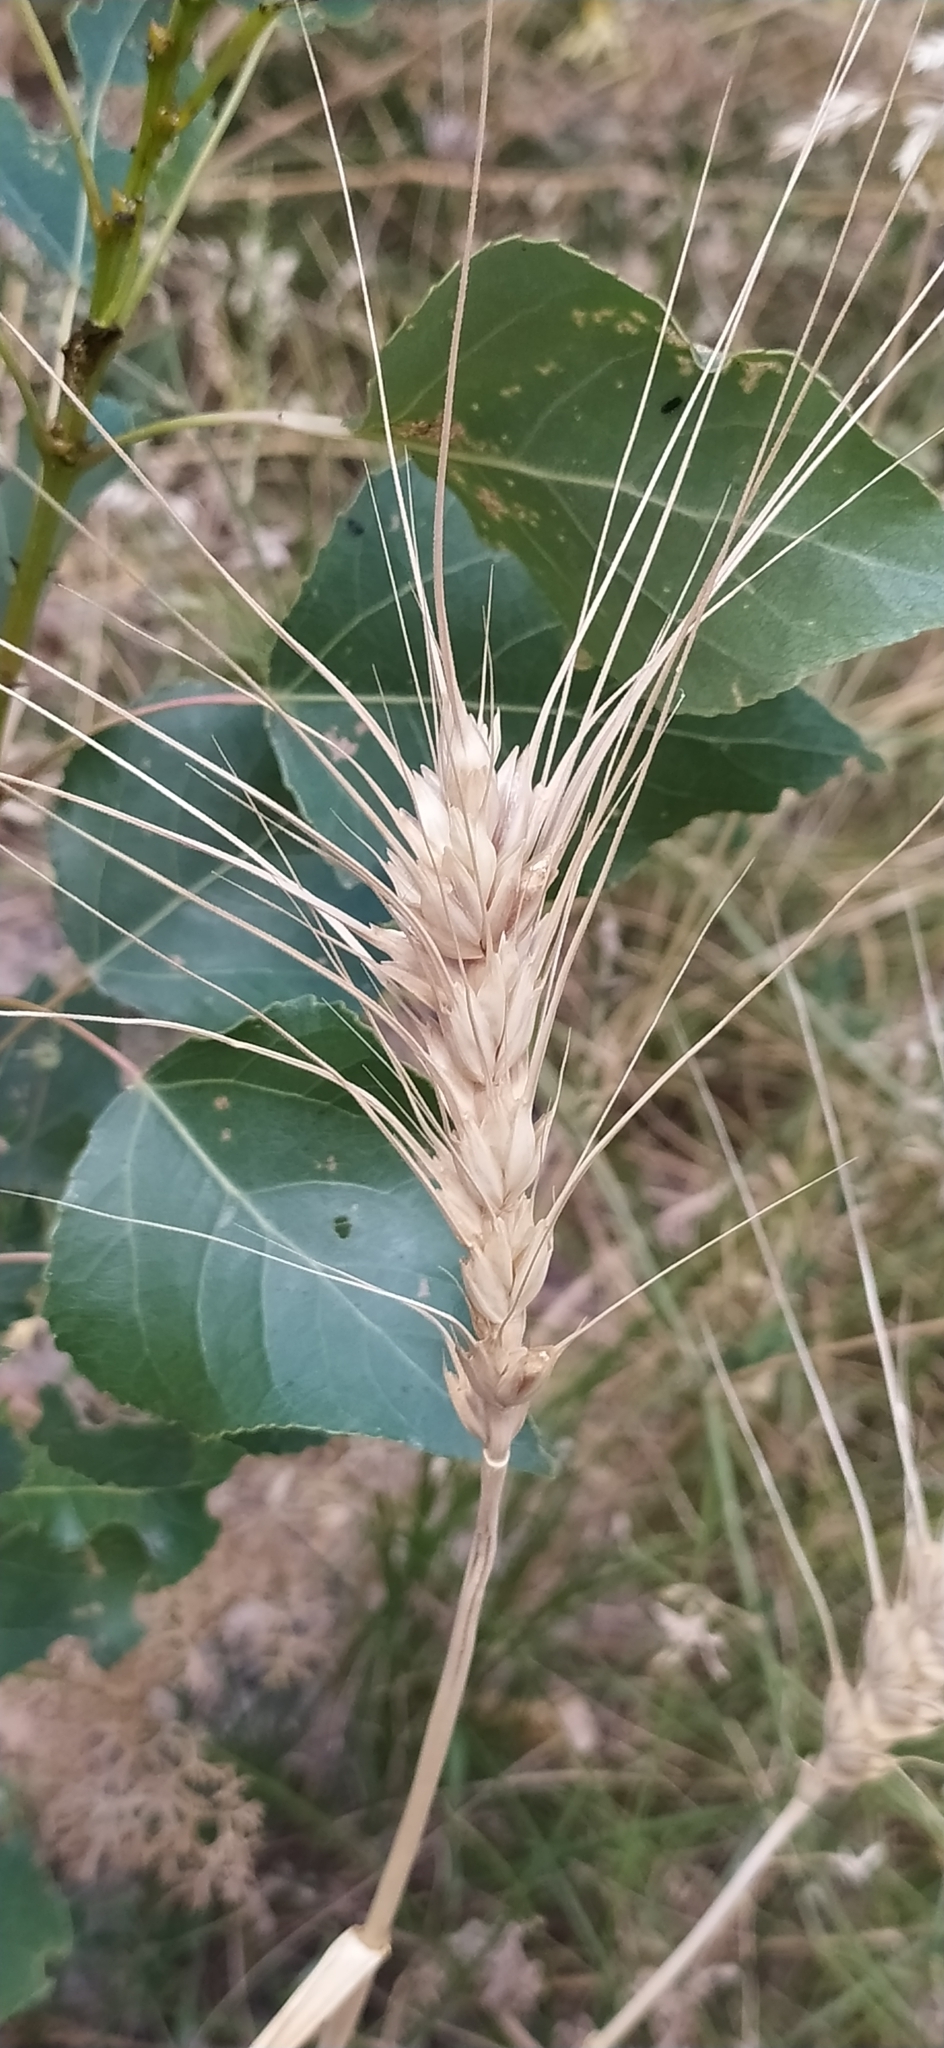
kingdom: Plantae
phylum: Tracheophyta
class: Liliopsida
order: Poales
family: Poaceae
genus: Triticum
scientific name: Triticum aestivum
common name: Common wheat
